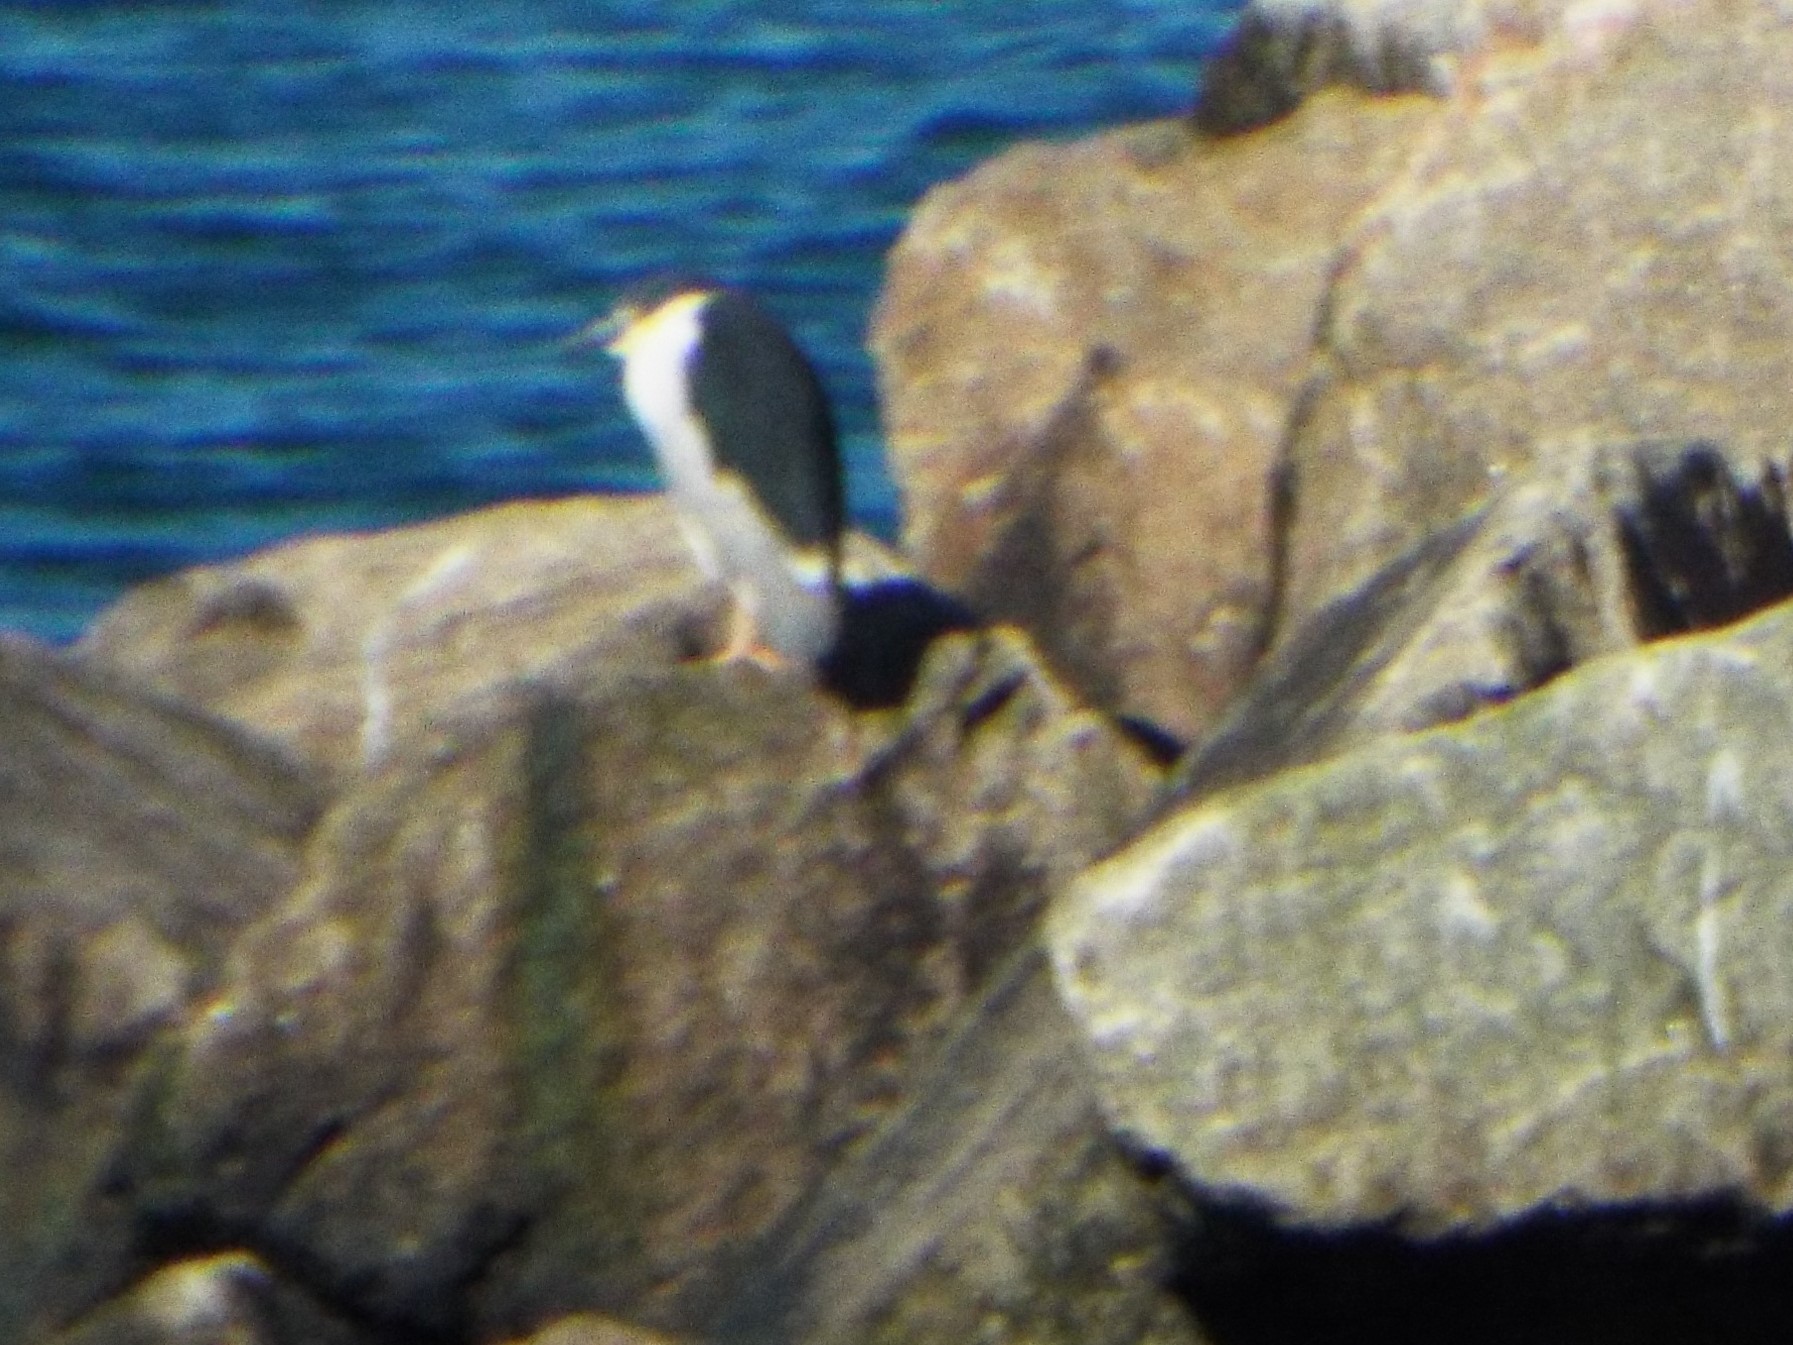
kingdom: Animalia
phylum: Chordata
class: Aves
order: Pelecaniformes
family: Ardeidae
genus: Nycticorax
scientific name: Nycticorax nycticorax
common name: Black-crowned night heron
